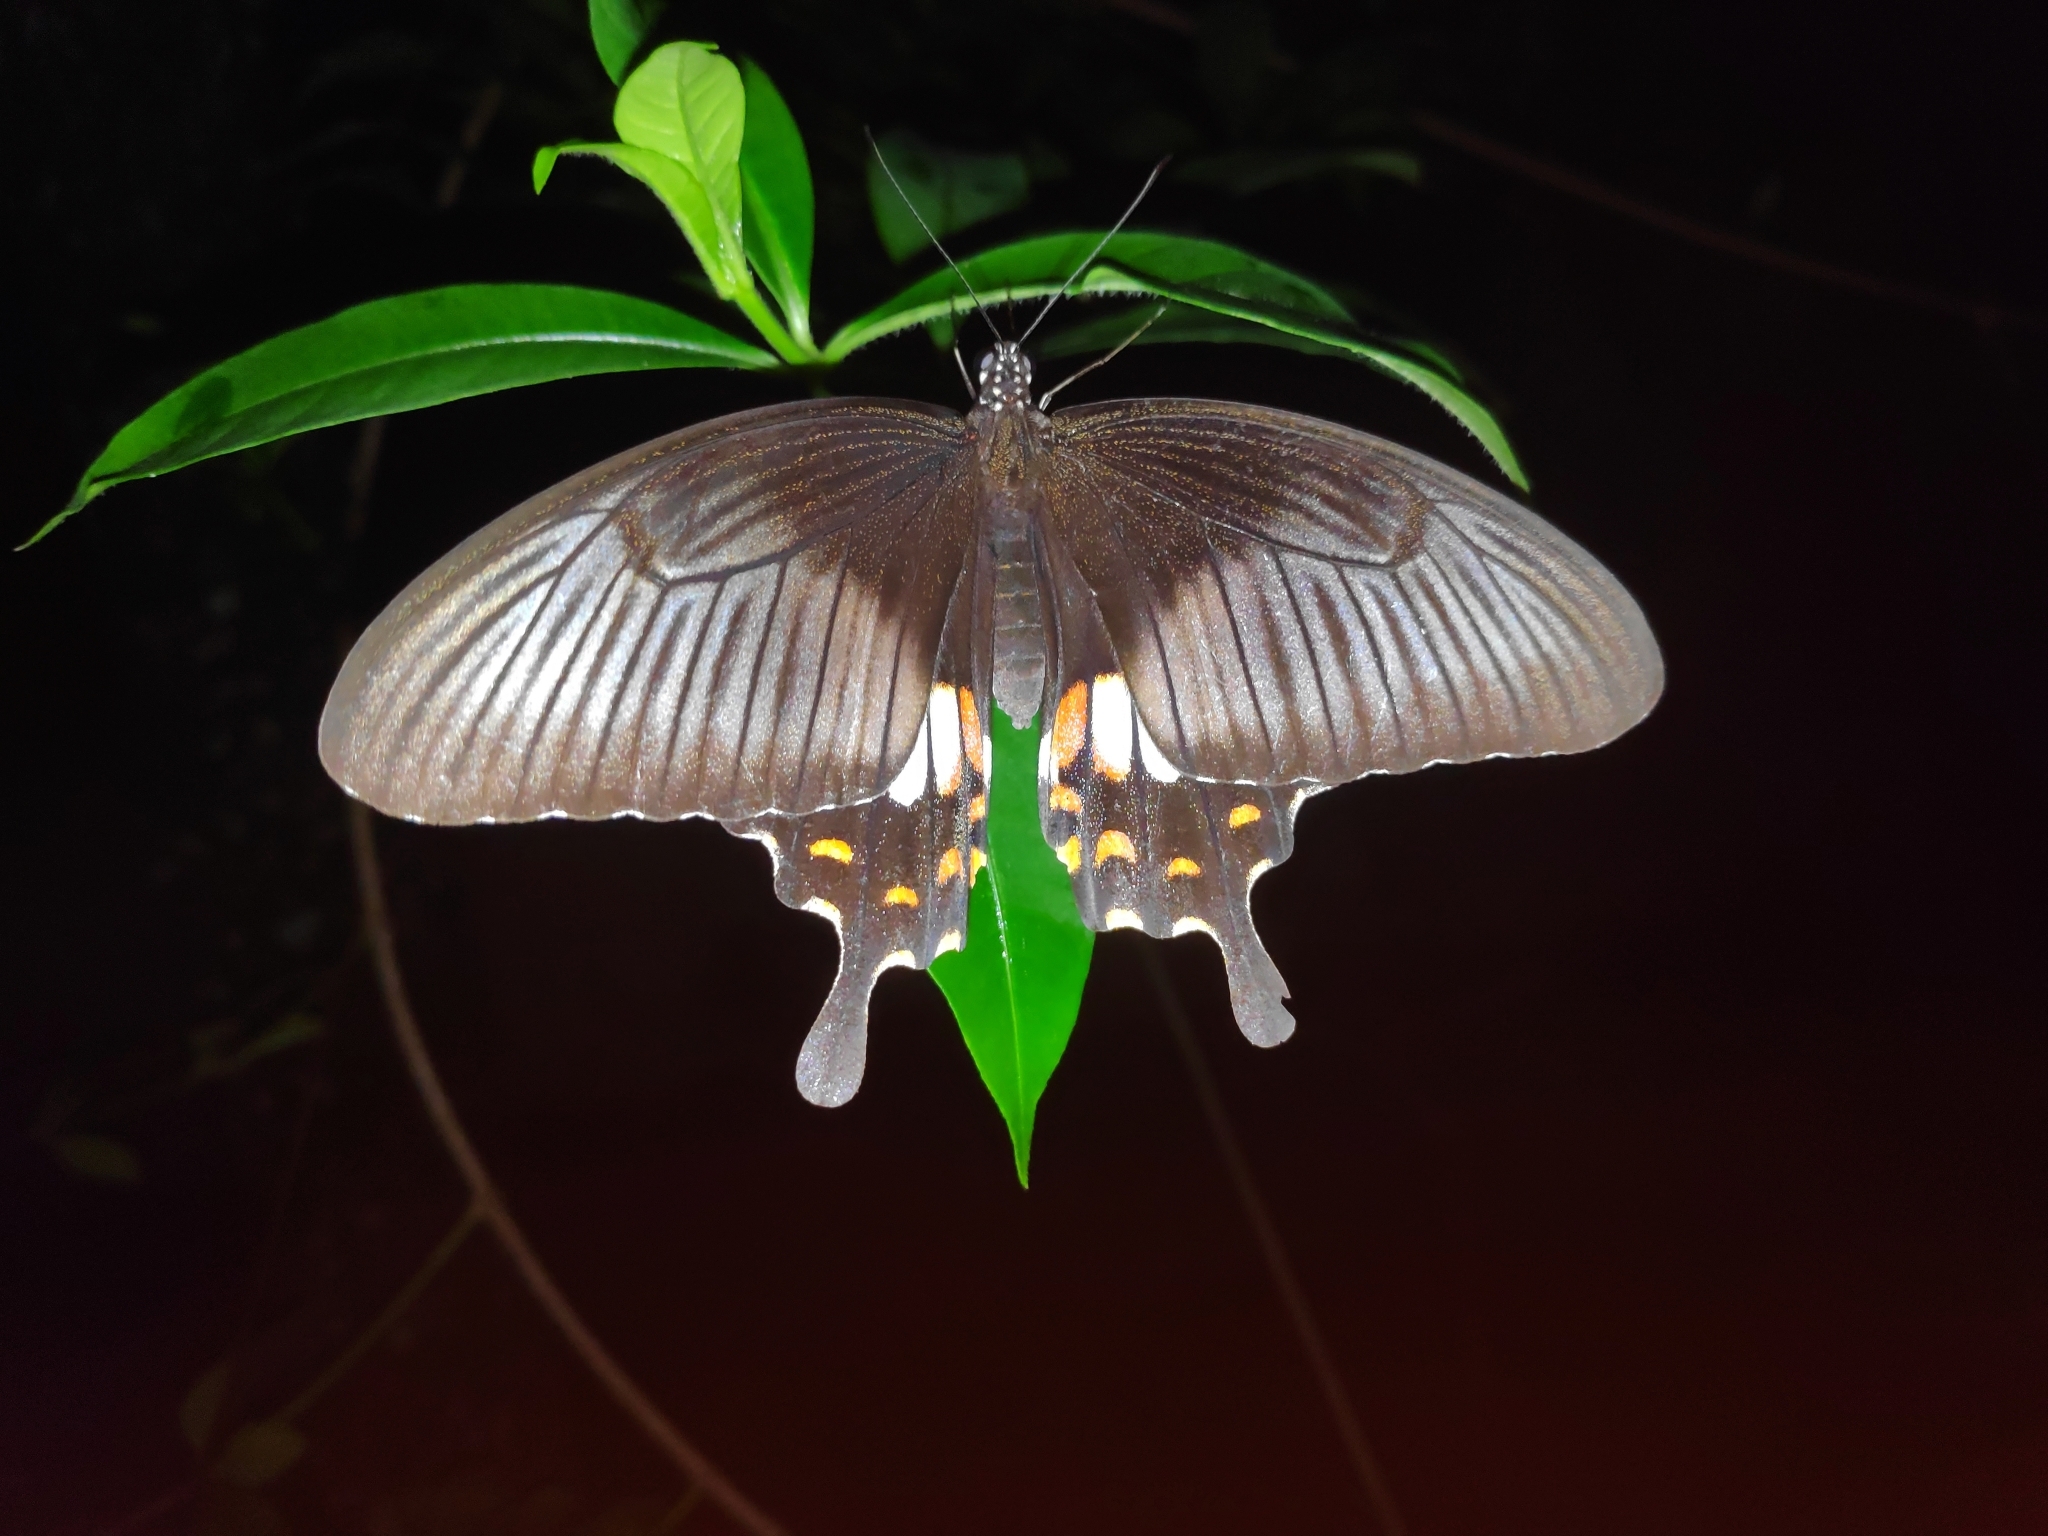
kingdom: Animalia
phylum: Arthropoda
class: Insecta
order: Lepidoptera
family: Papilionidae
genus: Papilio
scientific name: Papilio polytes
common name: Common mormon
